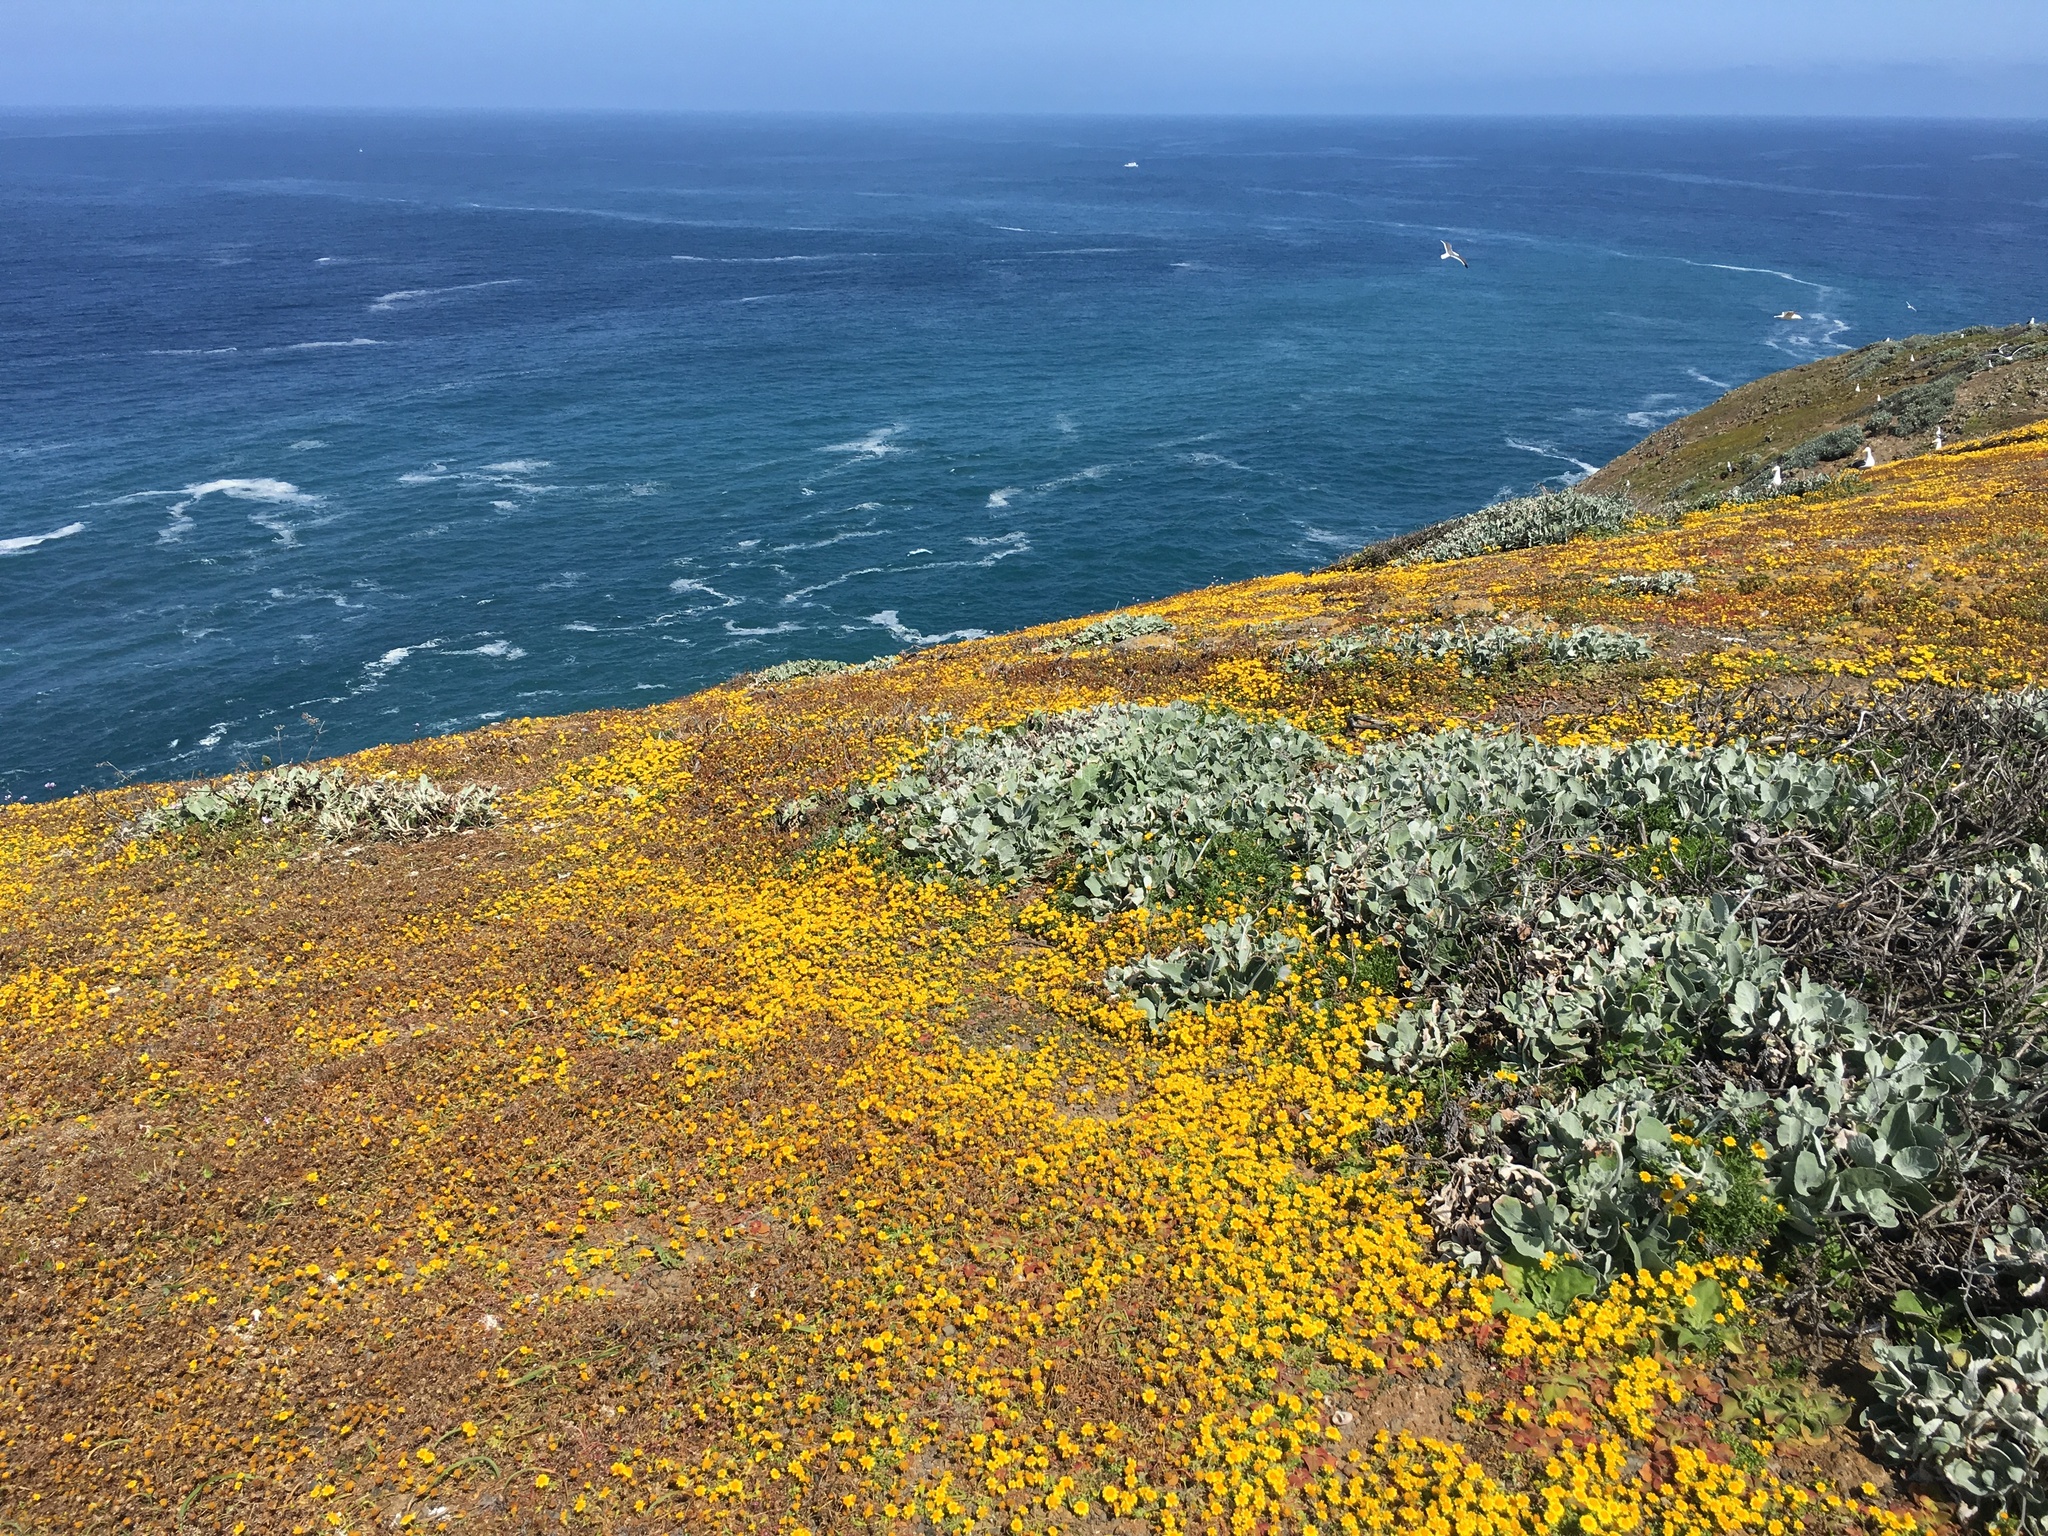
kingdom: Plantae
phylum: Tracheophyta
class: Magnoliopsida
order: Caryophyllales
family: Polygonaceae
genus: Eriogonum
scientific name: Eriogonum giganteum
